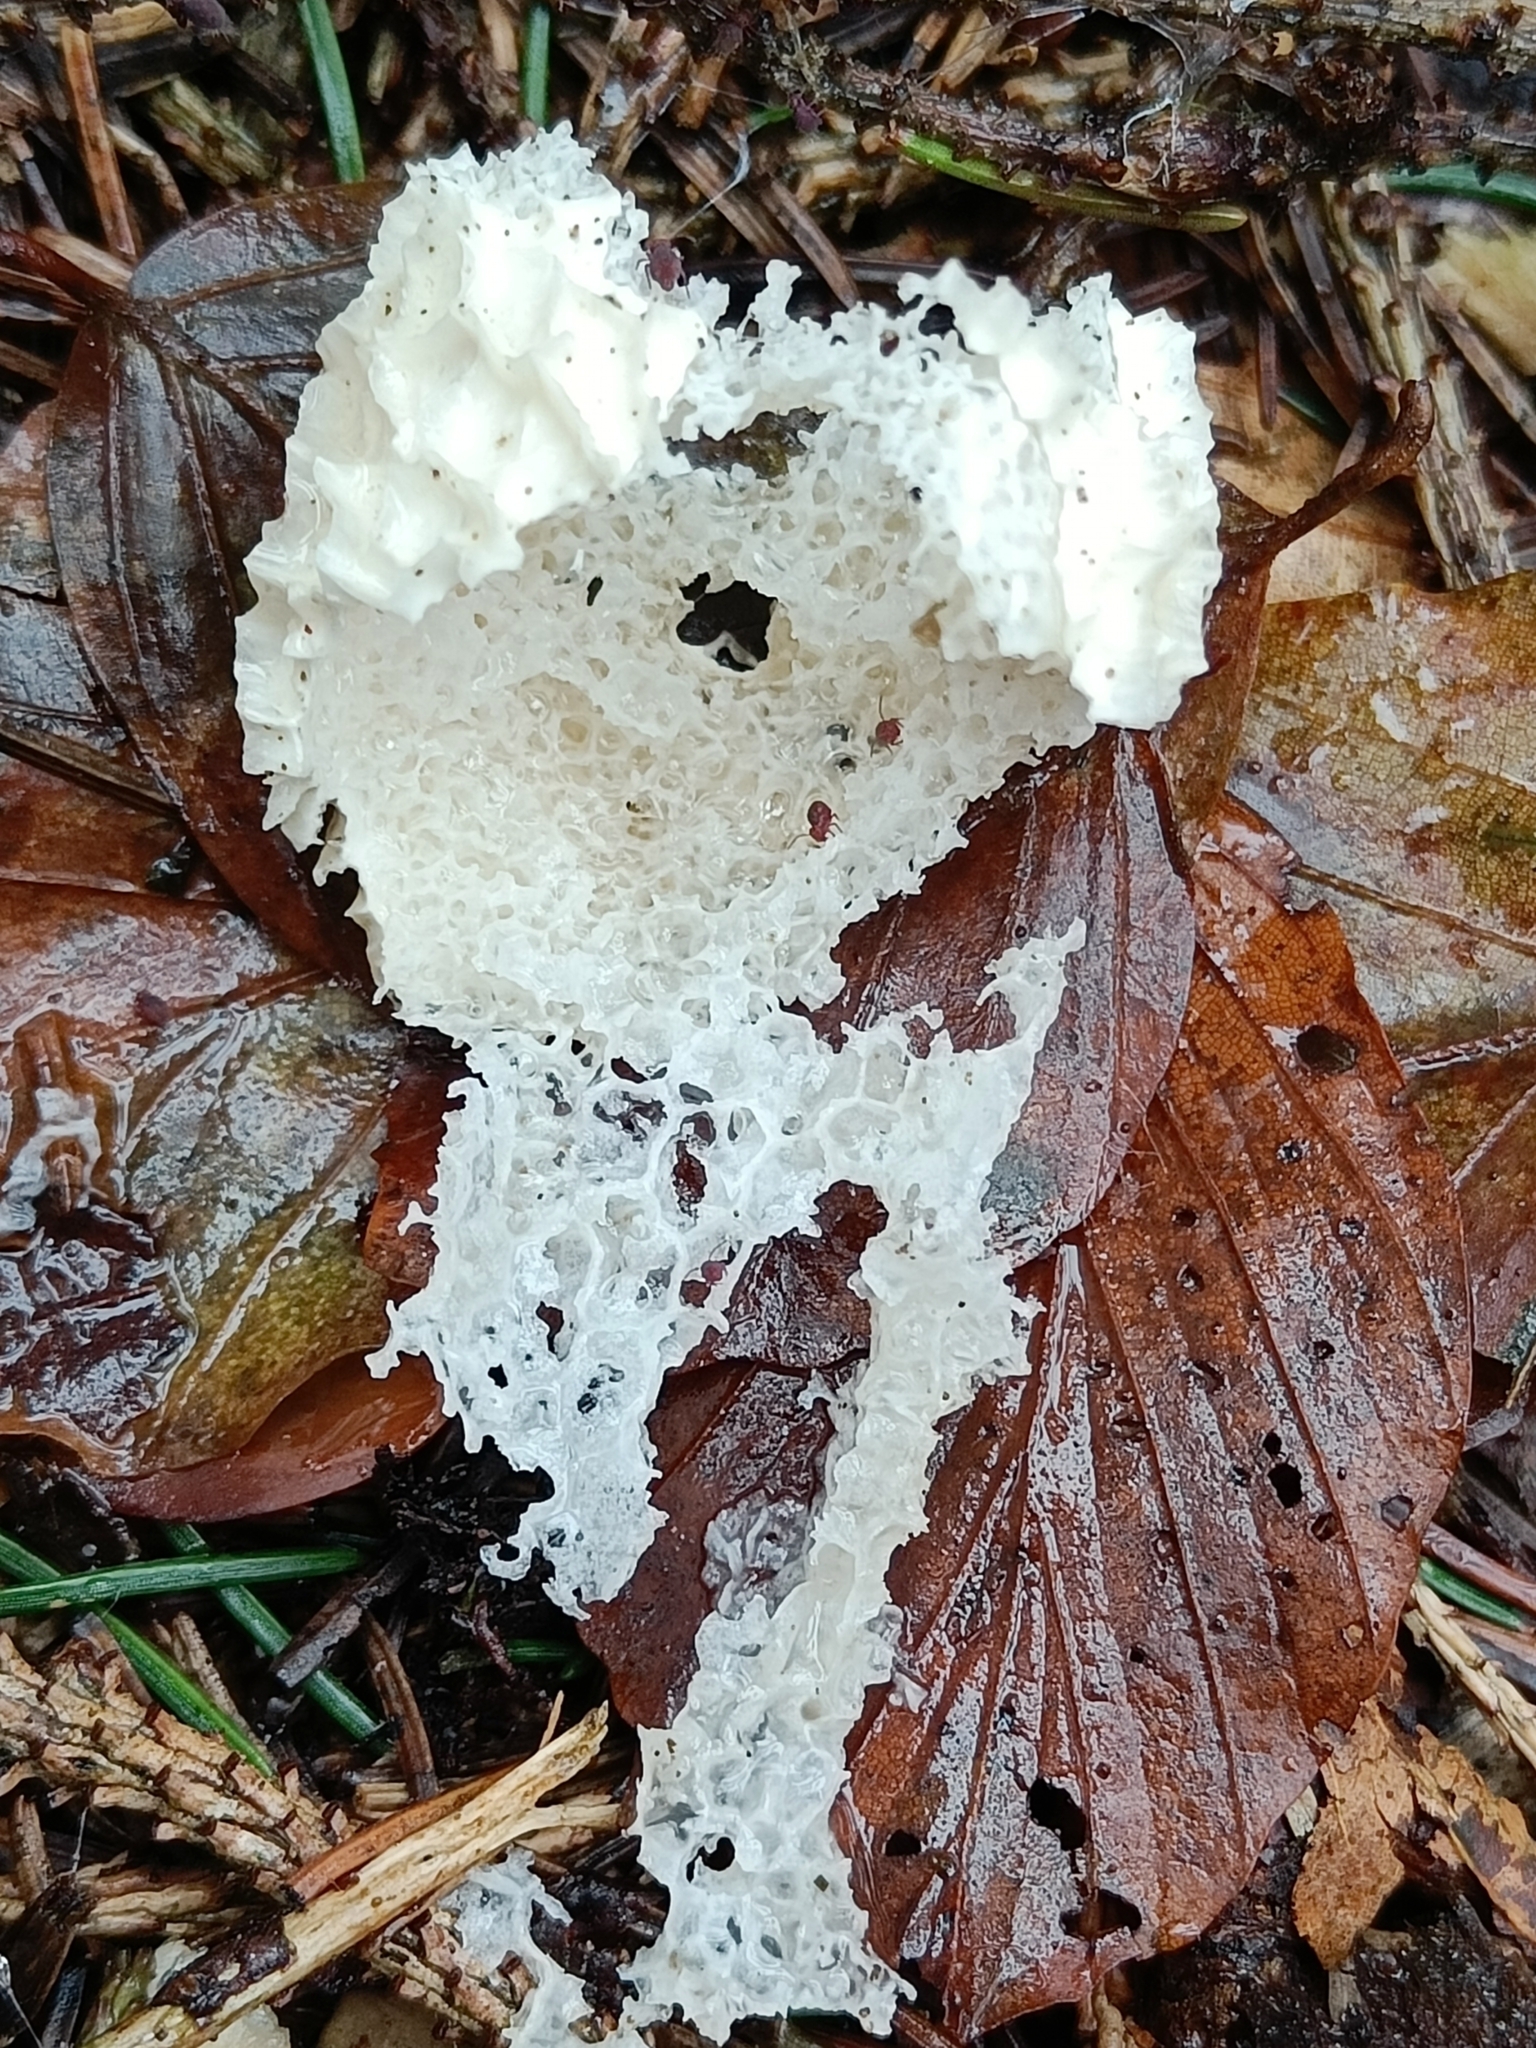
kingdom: Fungi
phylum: Basidiomycota
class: Agaricomycetes
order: Phallales
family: Phallaceae
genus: Phallus
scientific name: Phallus impudicus
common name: Common stinkhorn
